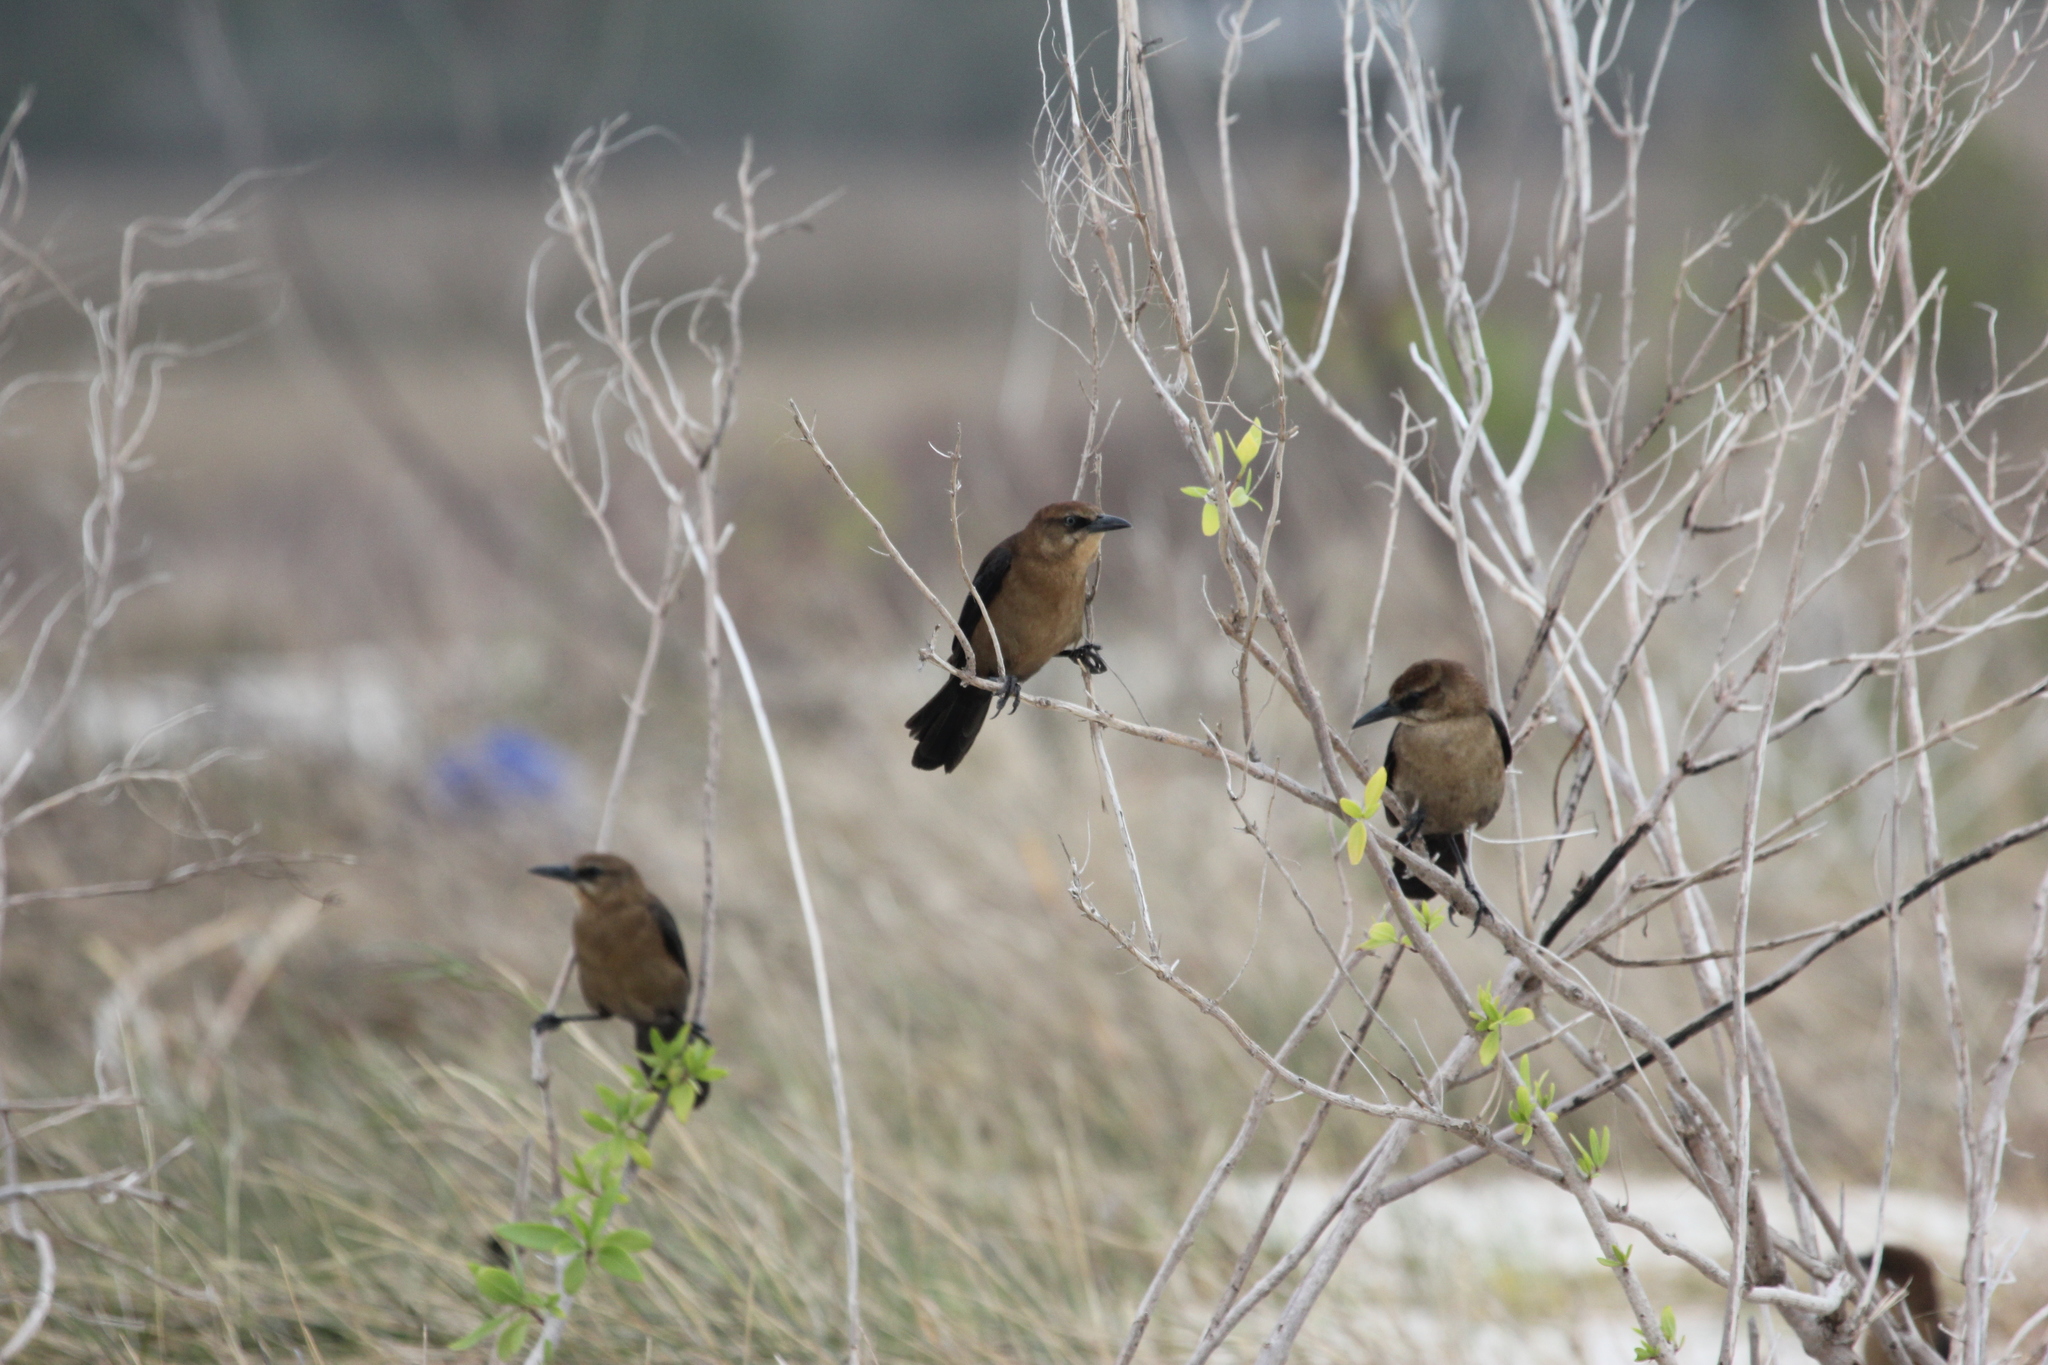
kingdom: Animalia
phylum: Chordata
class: Aves
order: Passeriformes
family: Icteridae
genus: Quiscalus
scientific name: Quiscalus major
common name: Boat-tailed grackle
